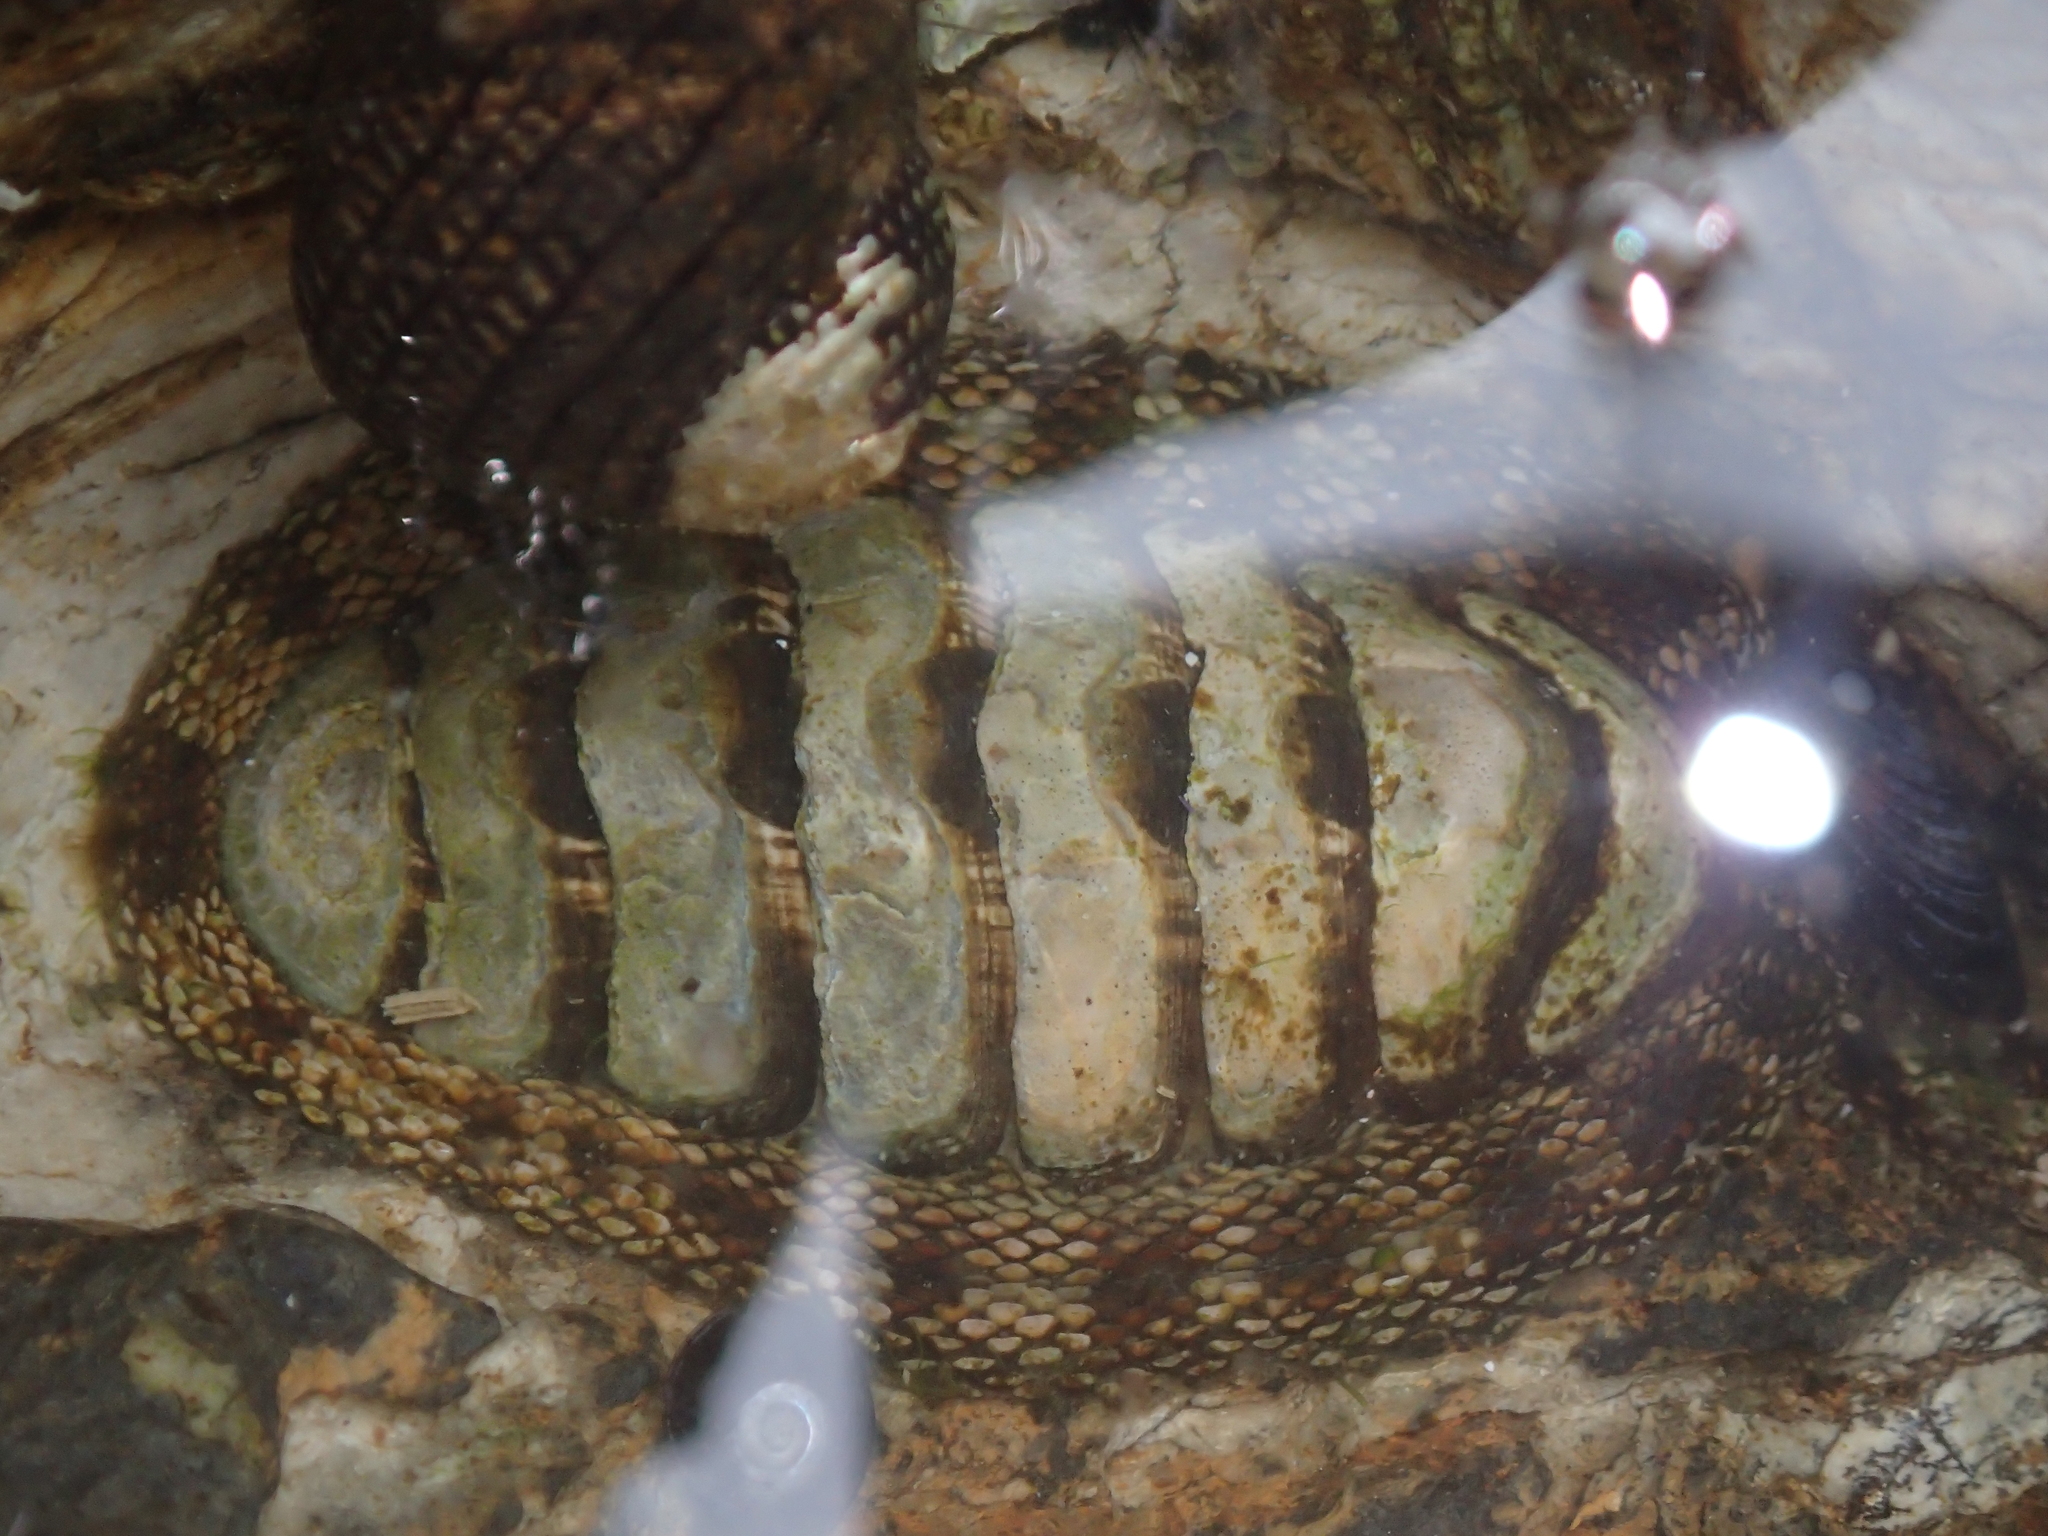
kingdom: Animalia
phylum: Mollusca
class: Polyplacophora
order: Chitonida
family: Chitonidae
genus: Sypharochiton
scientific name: Sypharochiton pelliserpentis
